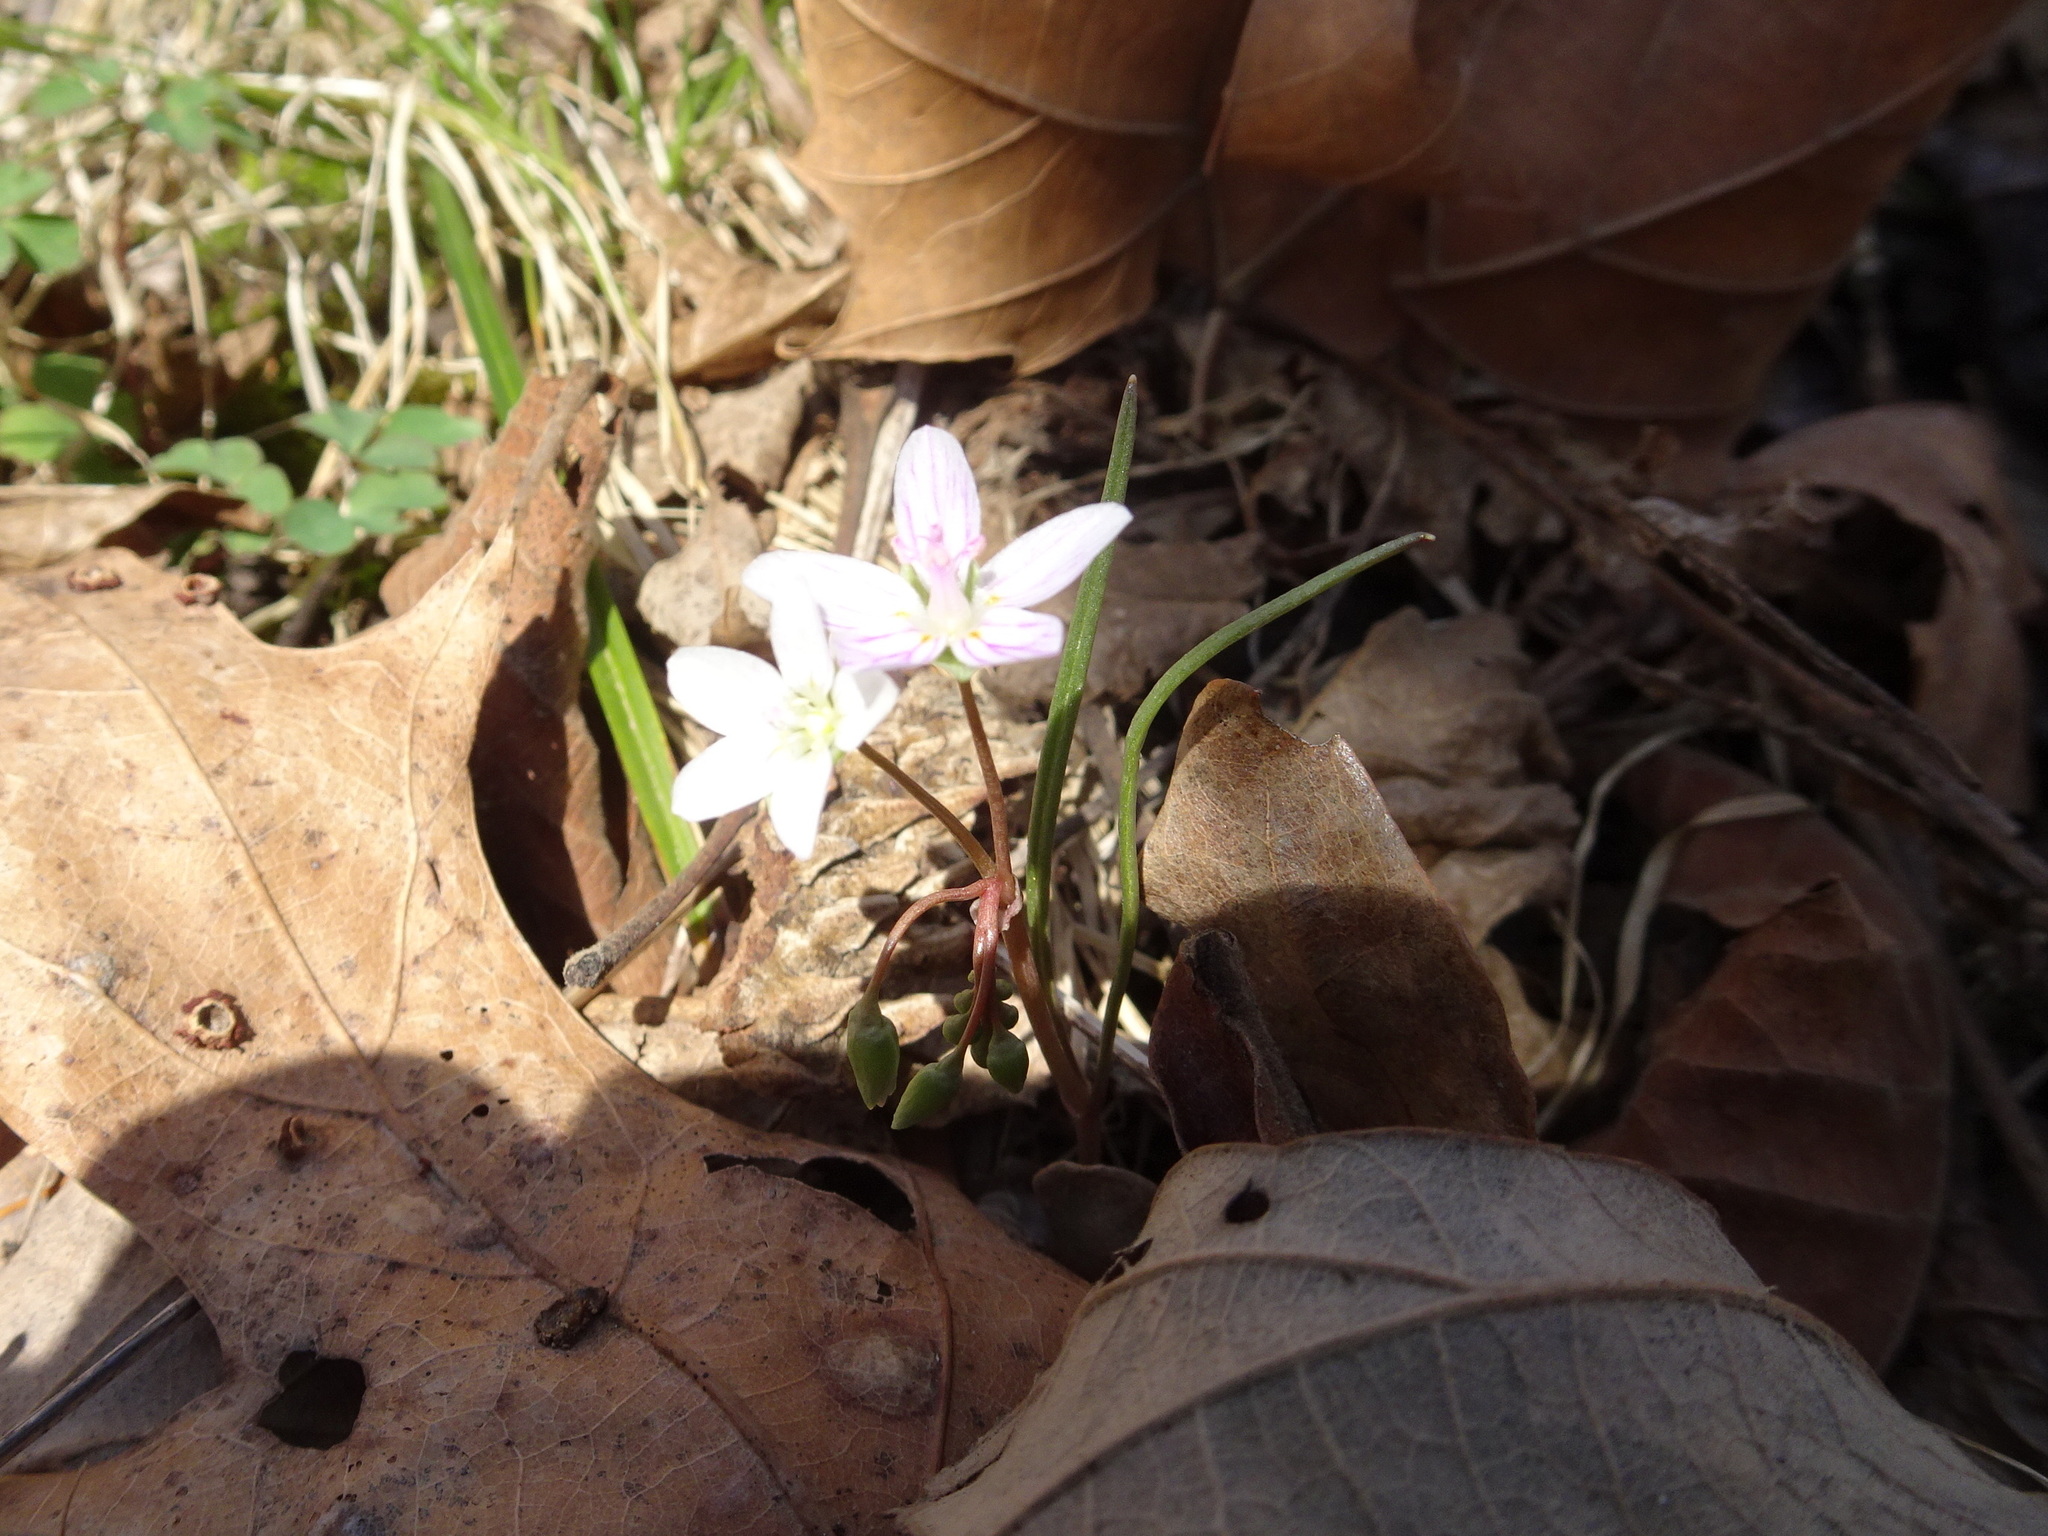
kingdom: Plantae
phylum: Tracheophyta
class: Magnoliopsida
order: Caryophyllales
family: Montiaceae
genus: Claytonia
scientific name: Claytonia virginica
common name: Virginia springbeauty
